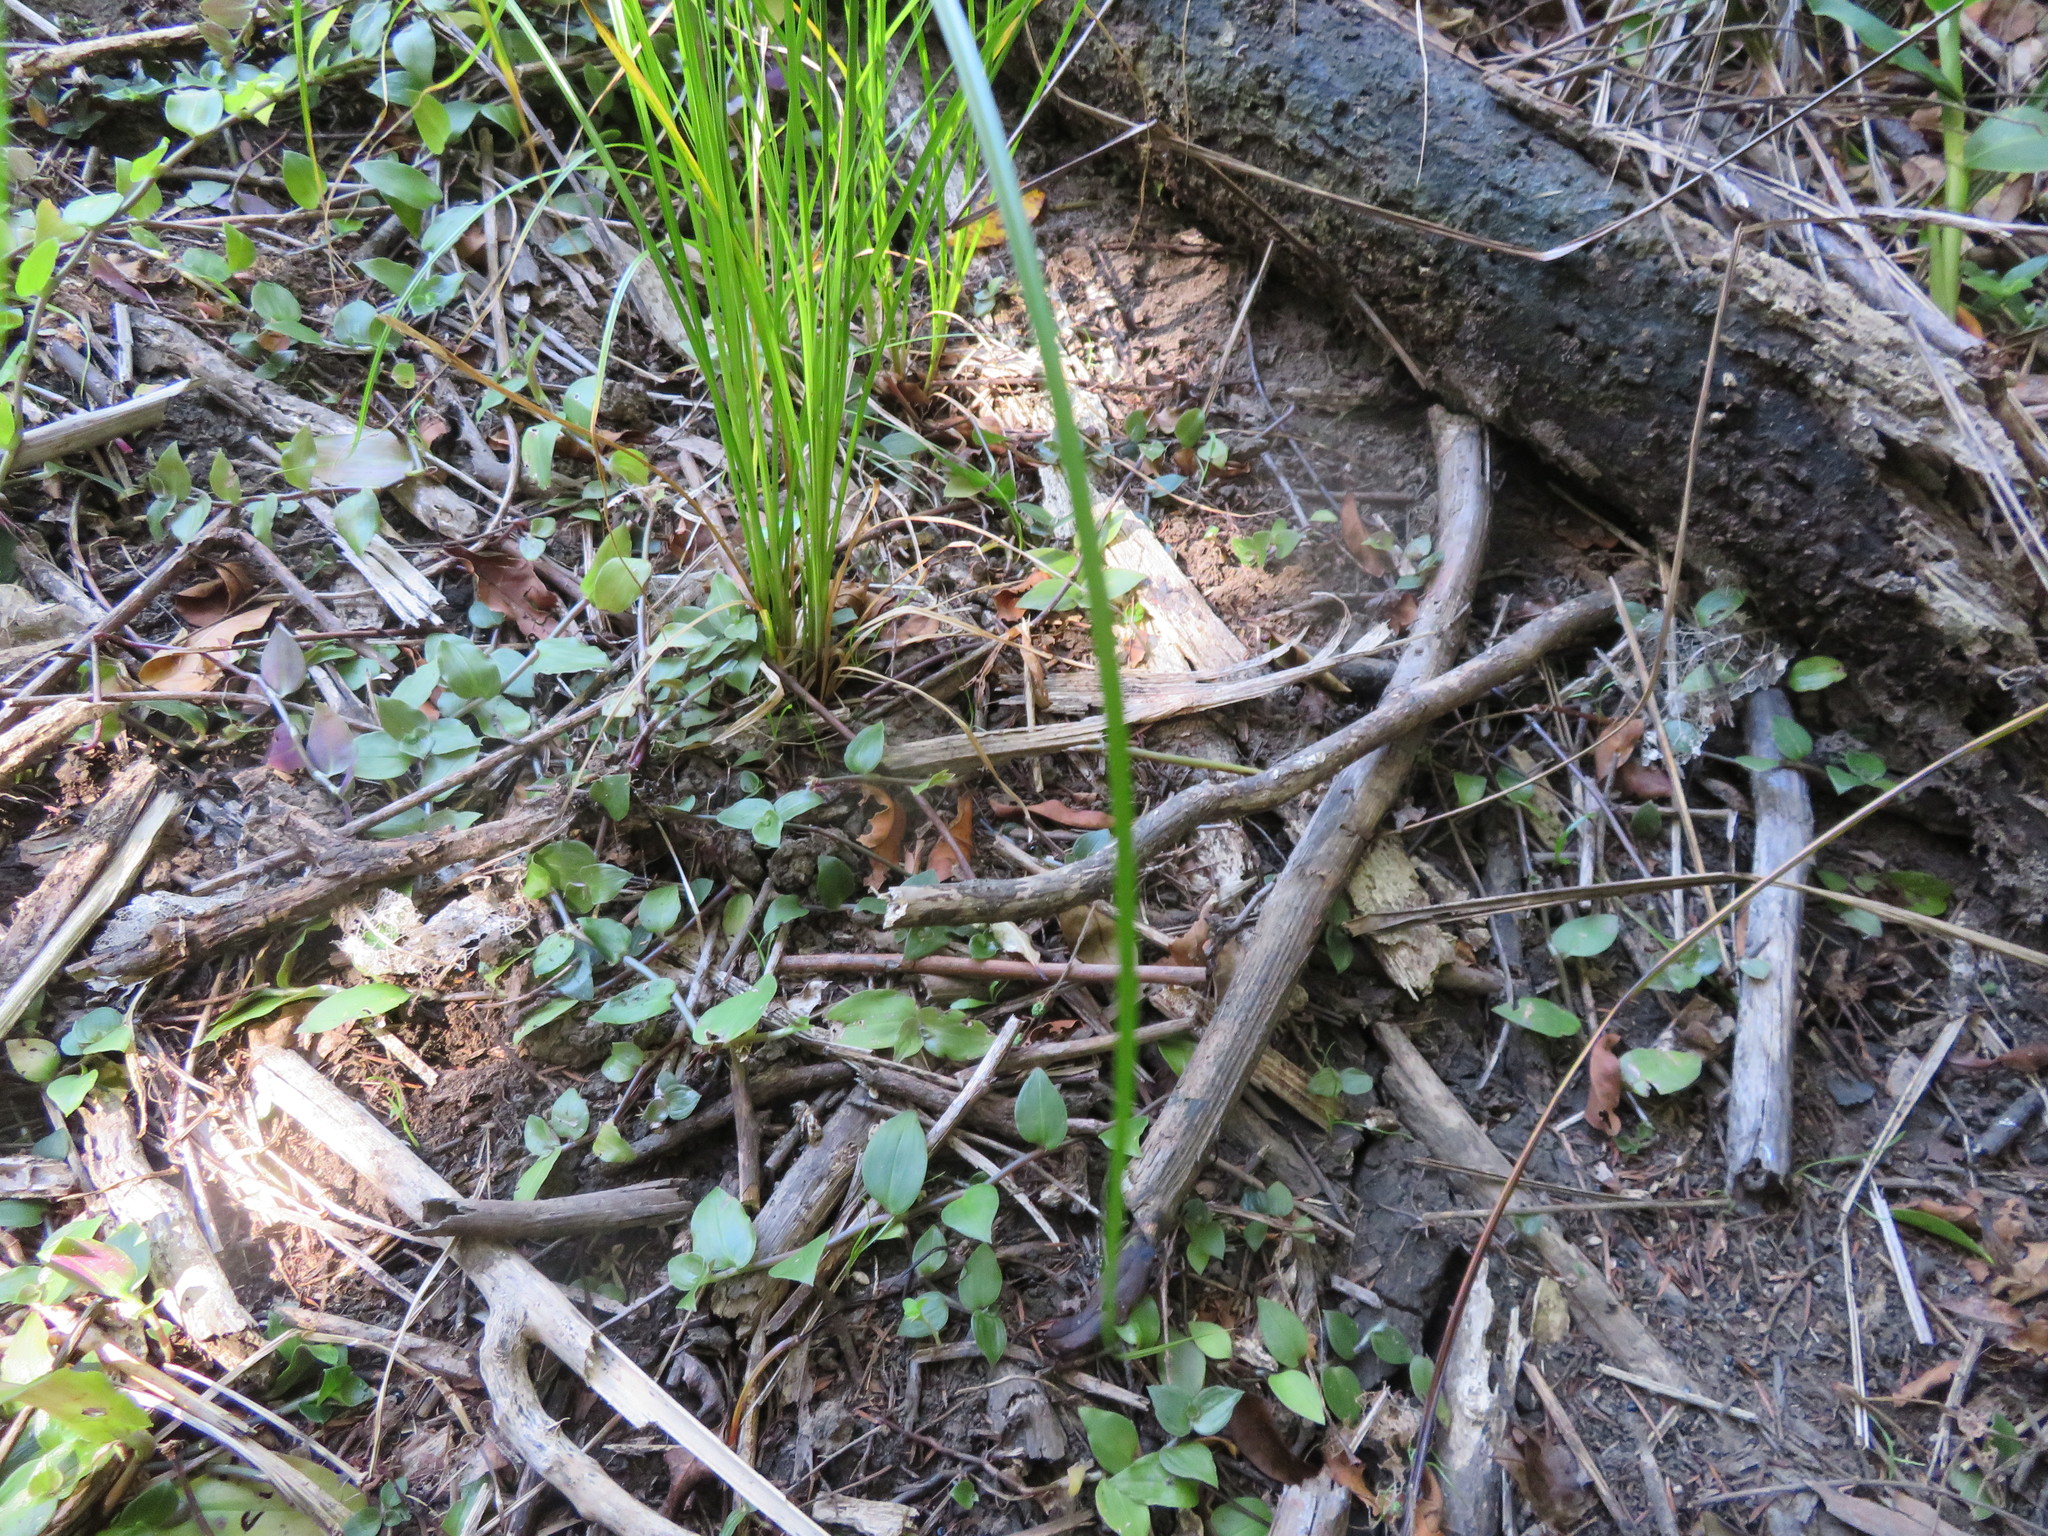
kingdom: Plantae
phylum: Tracheophyta
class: Liliopsida
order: Commelinales
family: Commelinaceae
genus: Tradescantia
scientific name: Tradescantia fluminensis
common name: Wandering-jew
